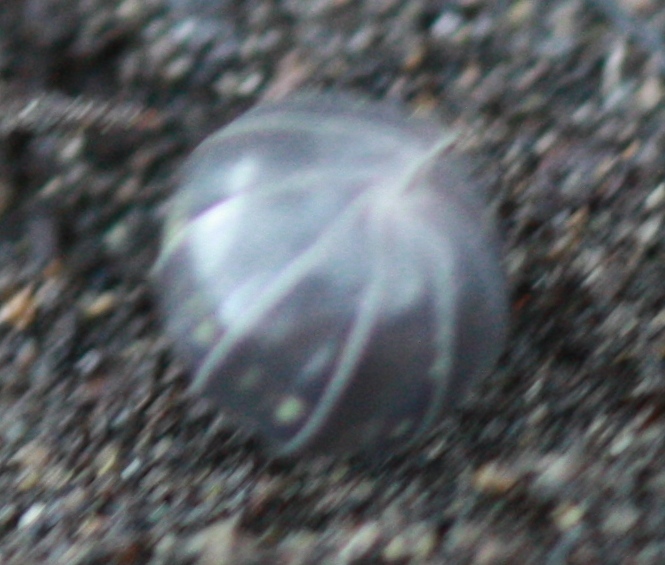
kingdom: Animalia
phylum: Arthropoda
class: Malacostraca
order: Isopoda
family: Armadillidiidae
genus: Armadillidium
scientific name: Armadillidium vulgare
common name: Common pill woodlouse
